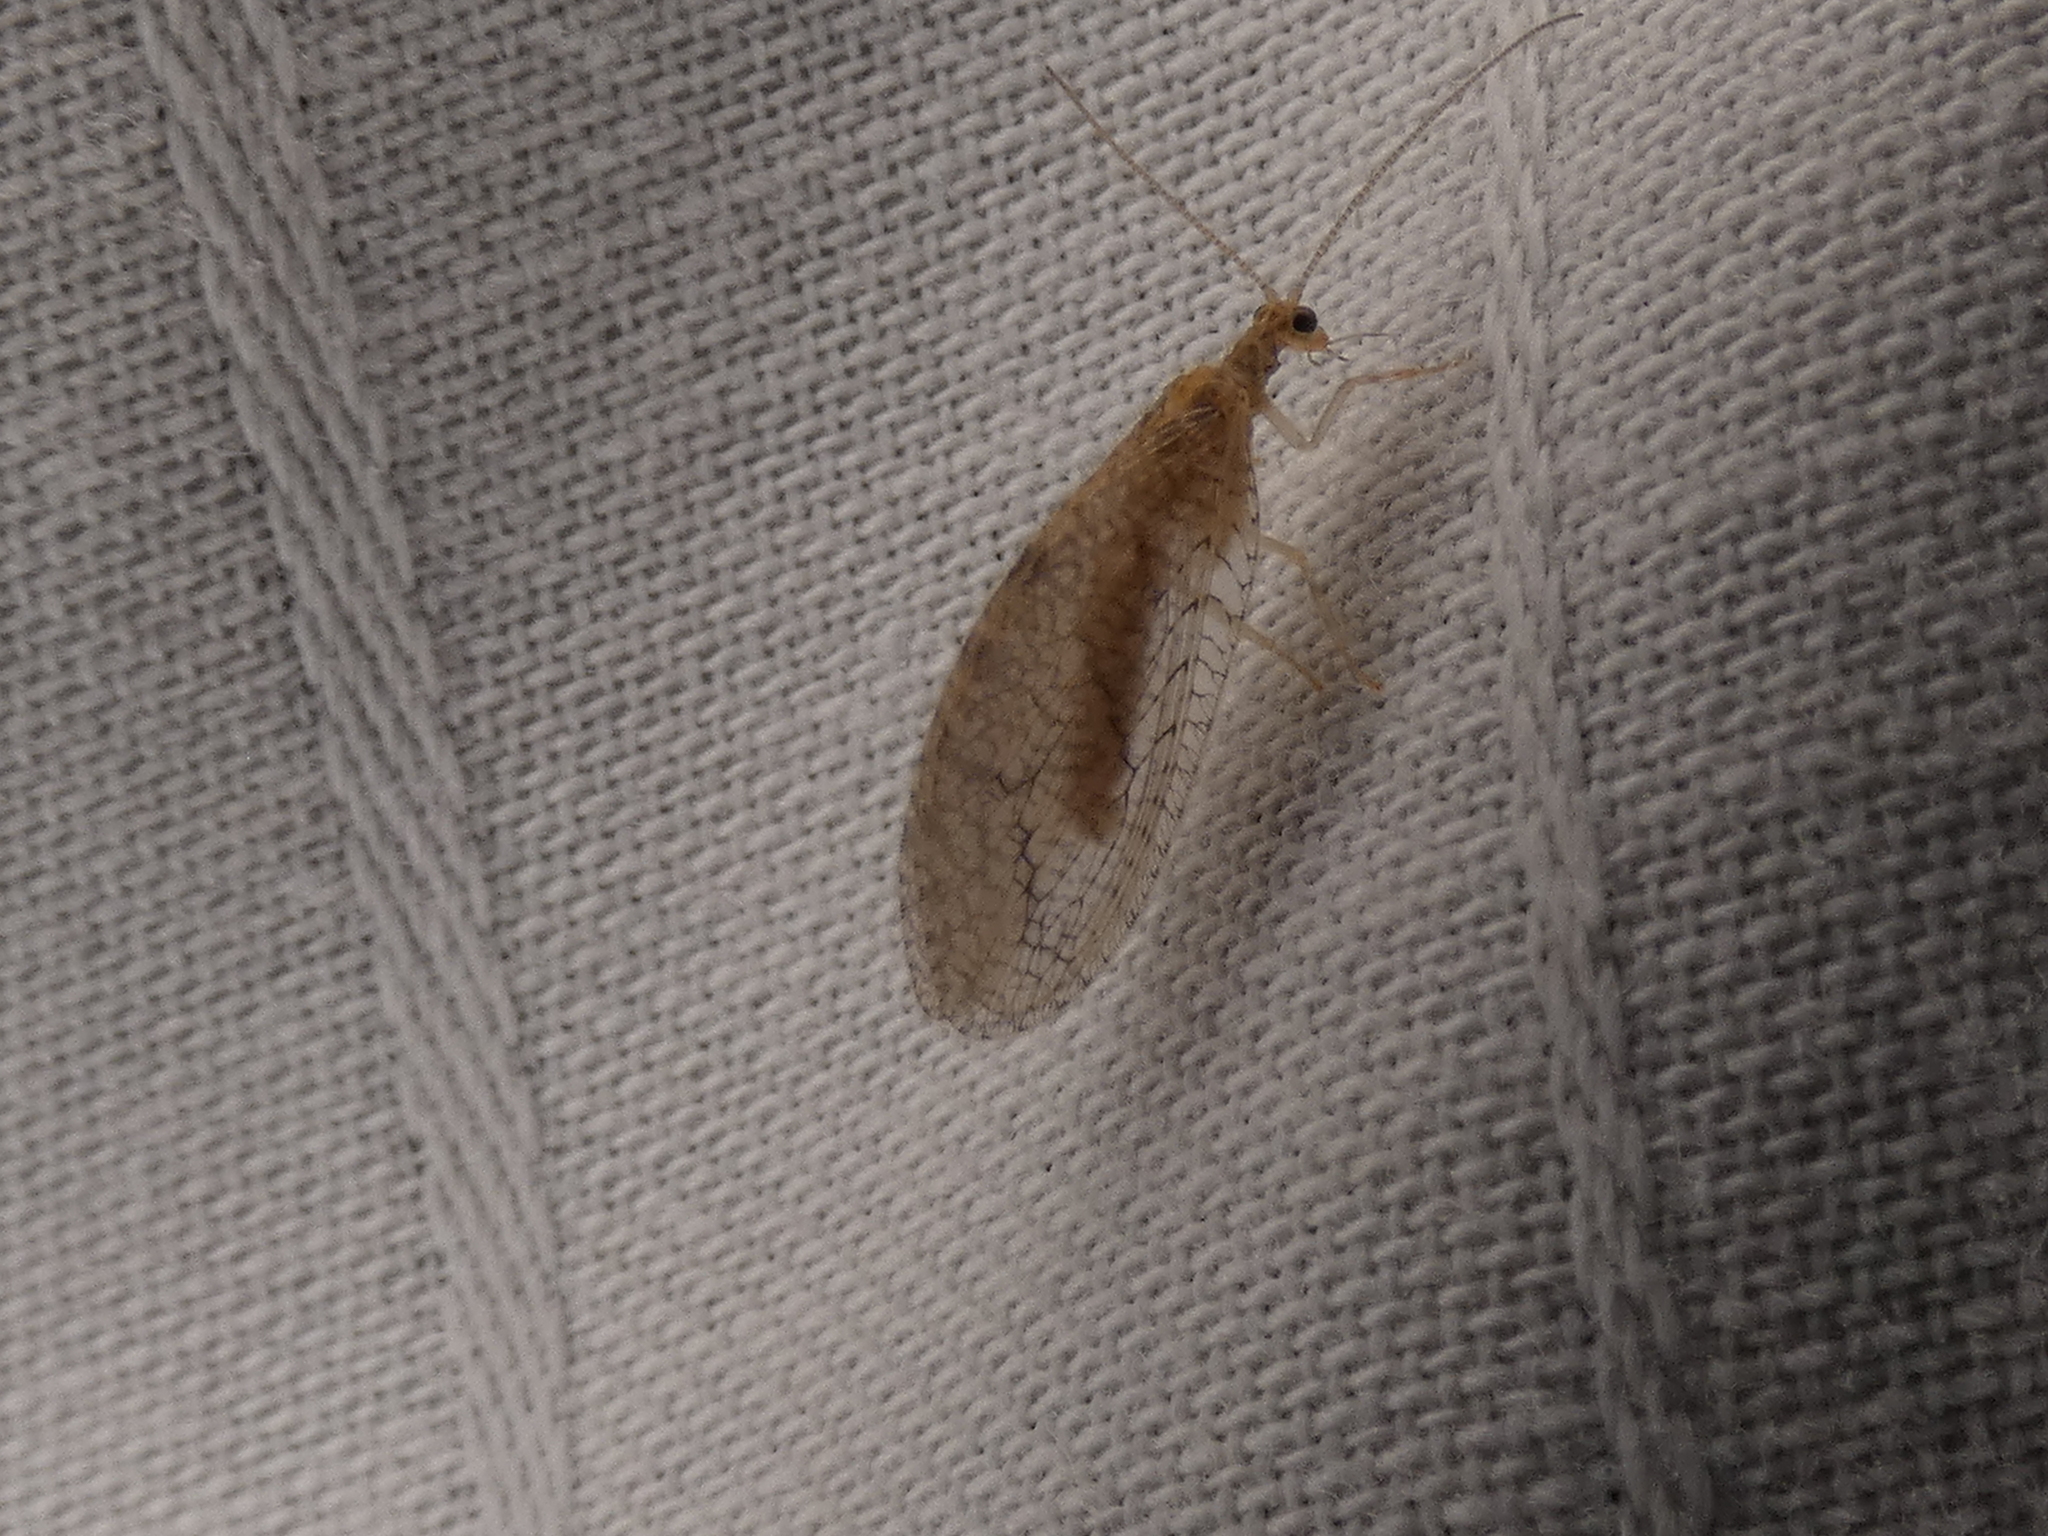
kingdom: Animalia
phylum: Arthropoda
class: Insecta
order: Neuroptera
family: Hemerobiidae
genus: Micromus
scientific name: Micromus posticus
